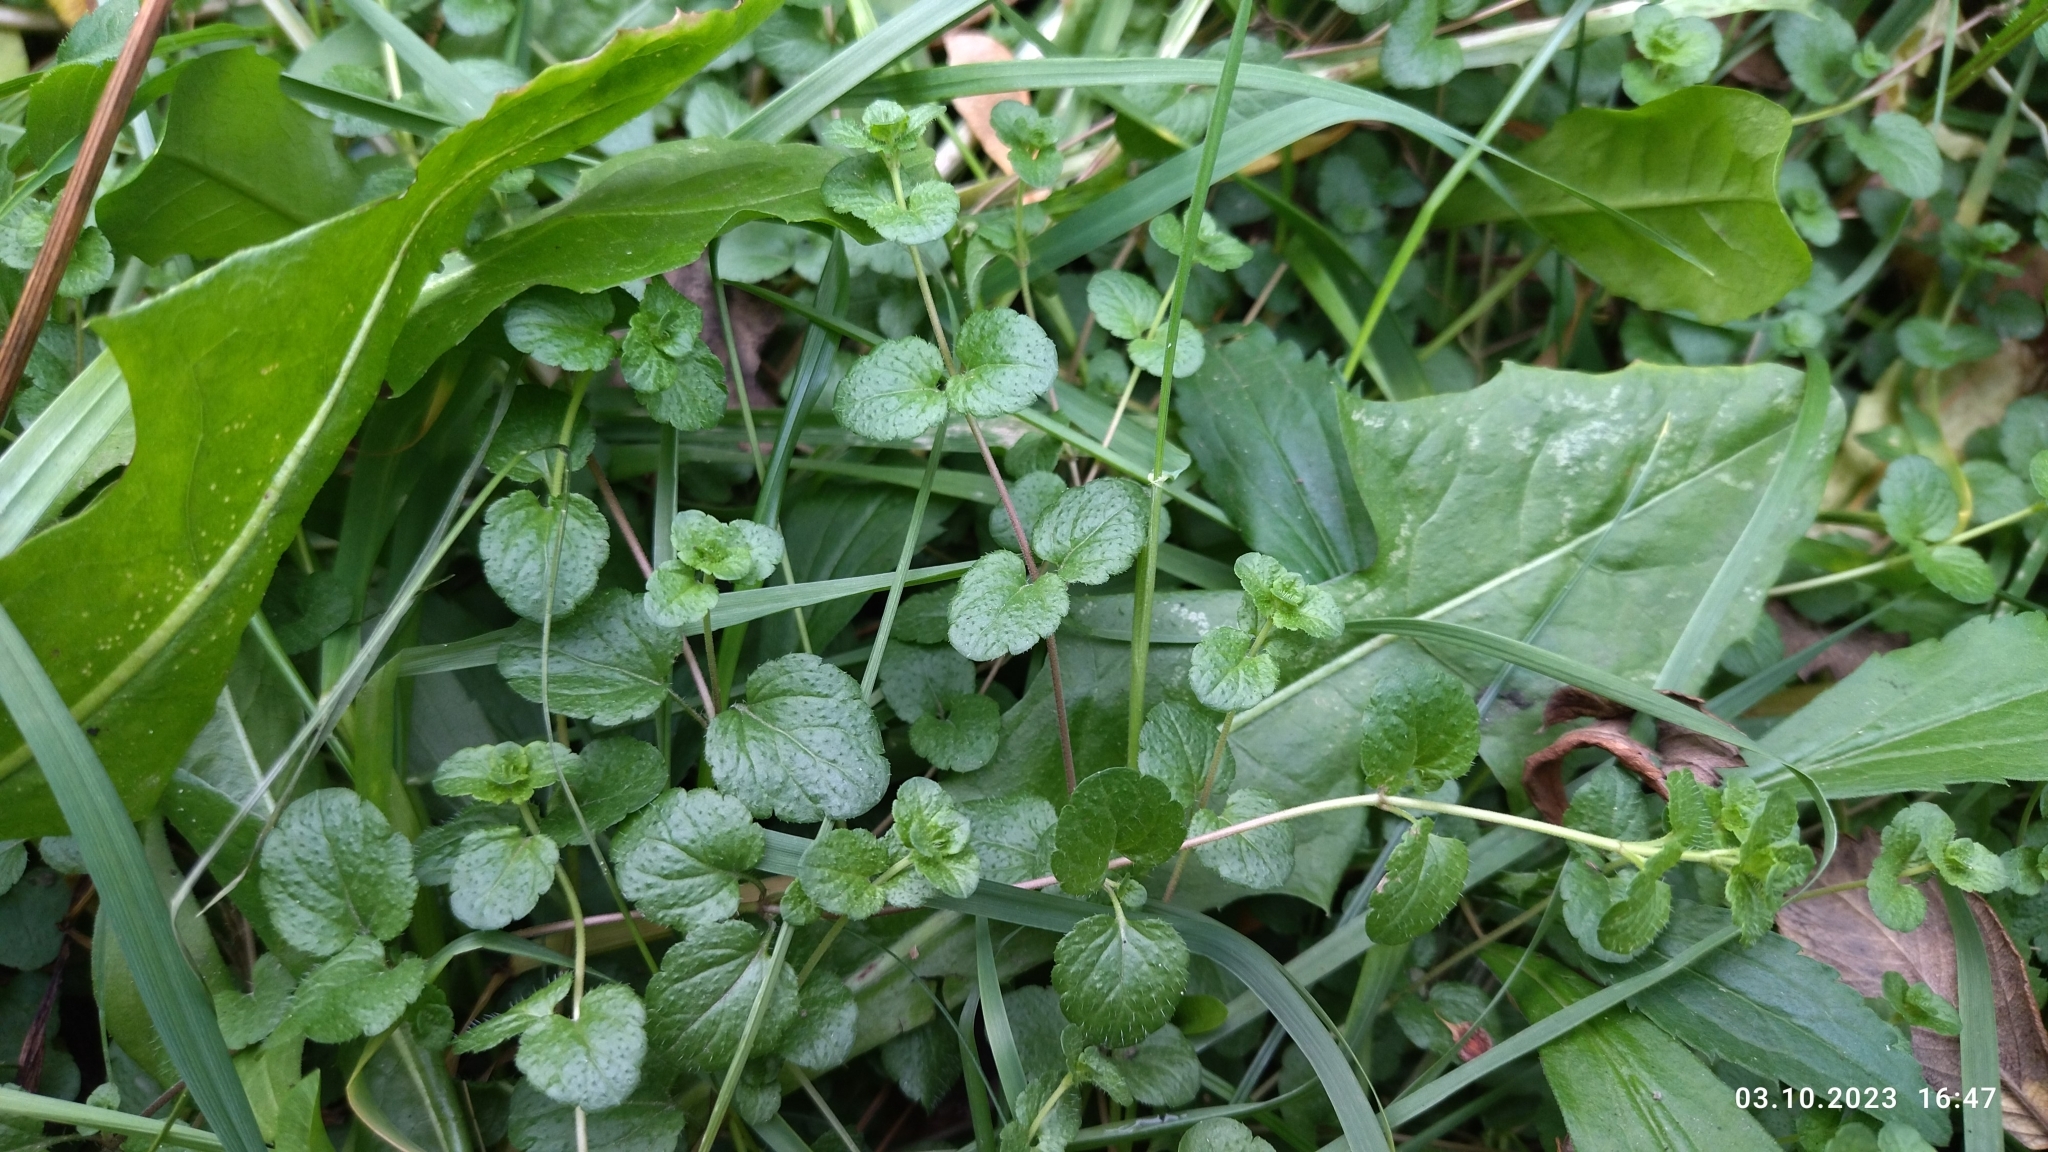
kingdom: Plantae
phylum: Tracheophyta
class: Magnoliopsida
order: Lamiales
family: Plantaginaceae
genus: Veronica
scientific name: Veronica filiformis
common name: Slender speedwell
